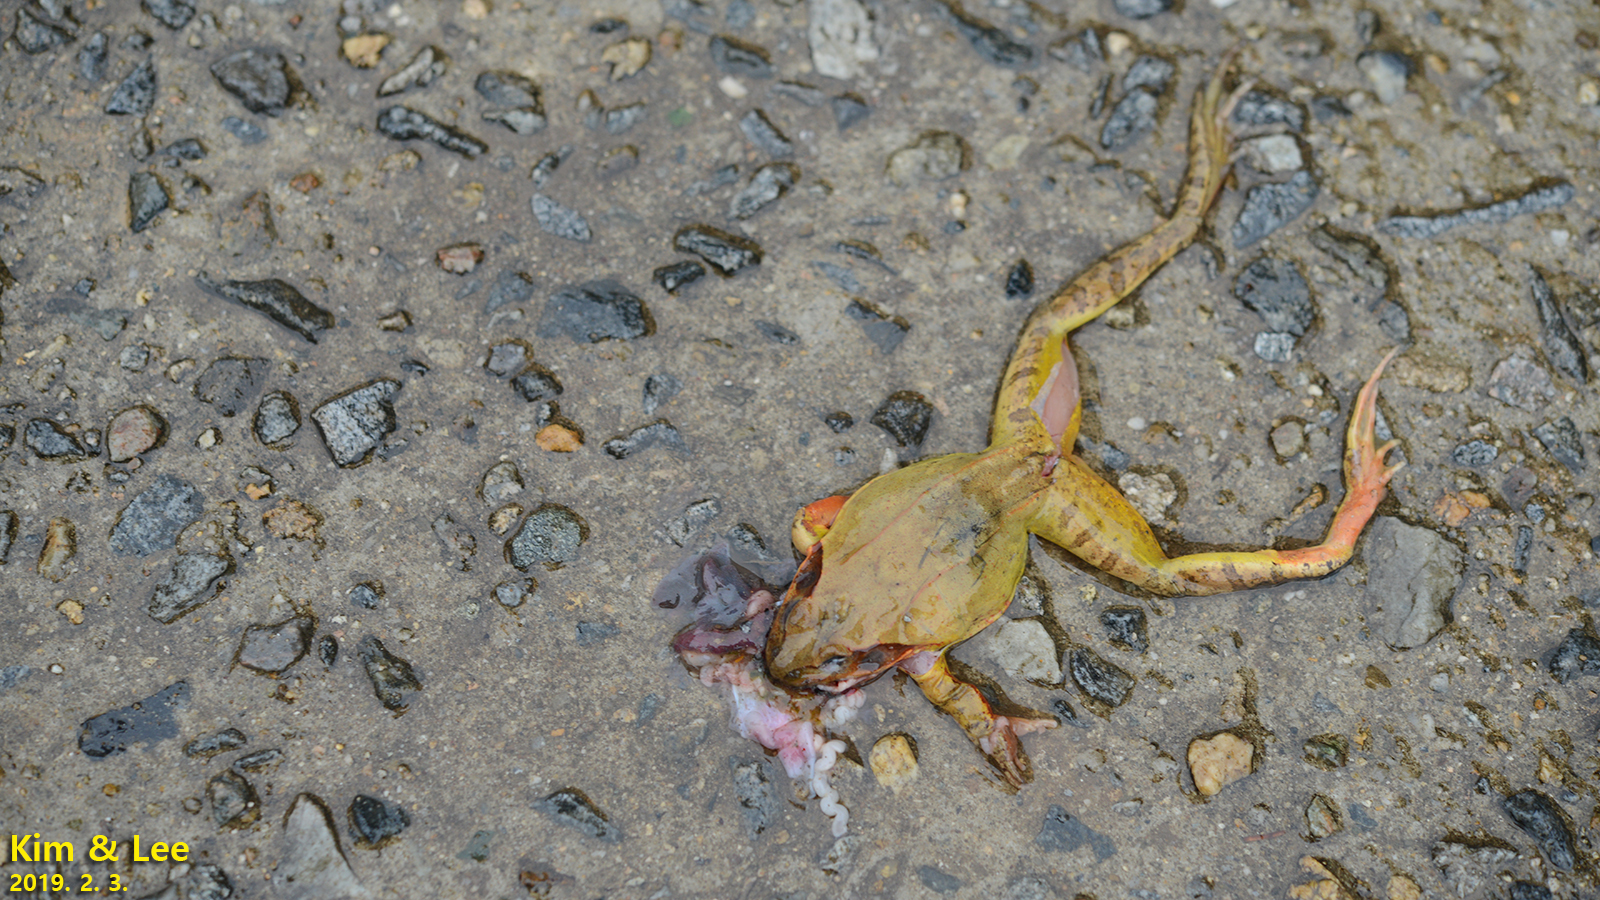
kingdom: Animalia
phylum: Chordata
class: Amphibia
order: Anura
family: Ranidae
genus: Rana
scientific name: Rana uenoi
